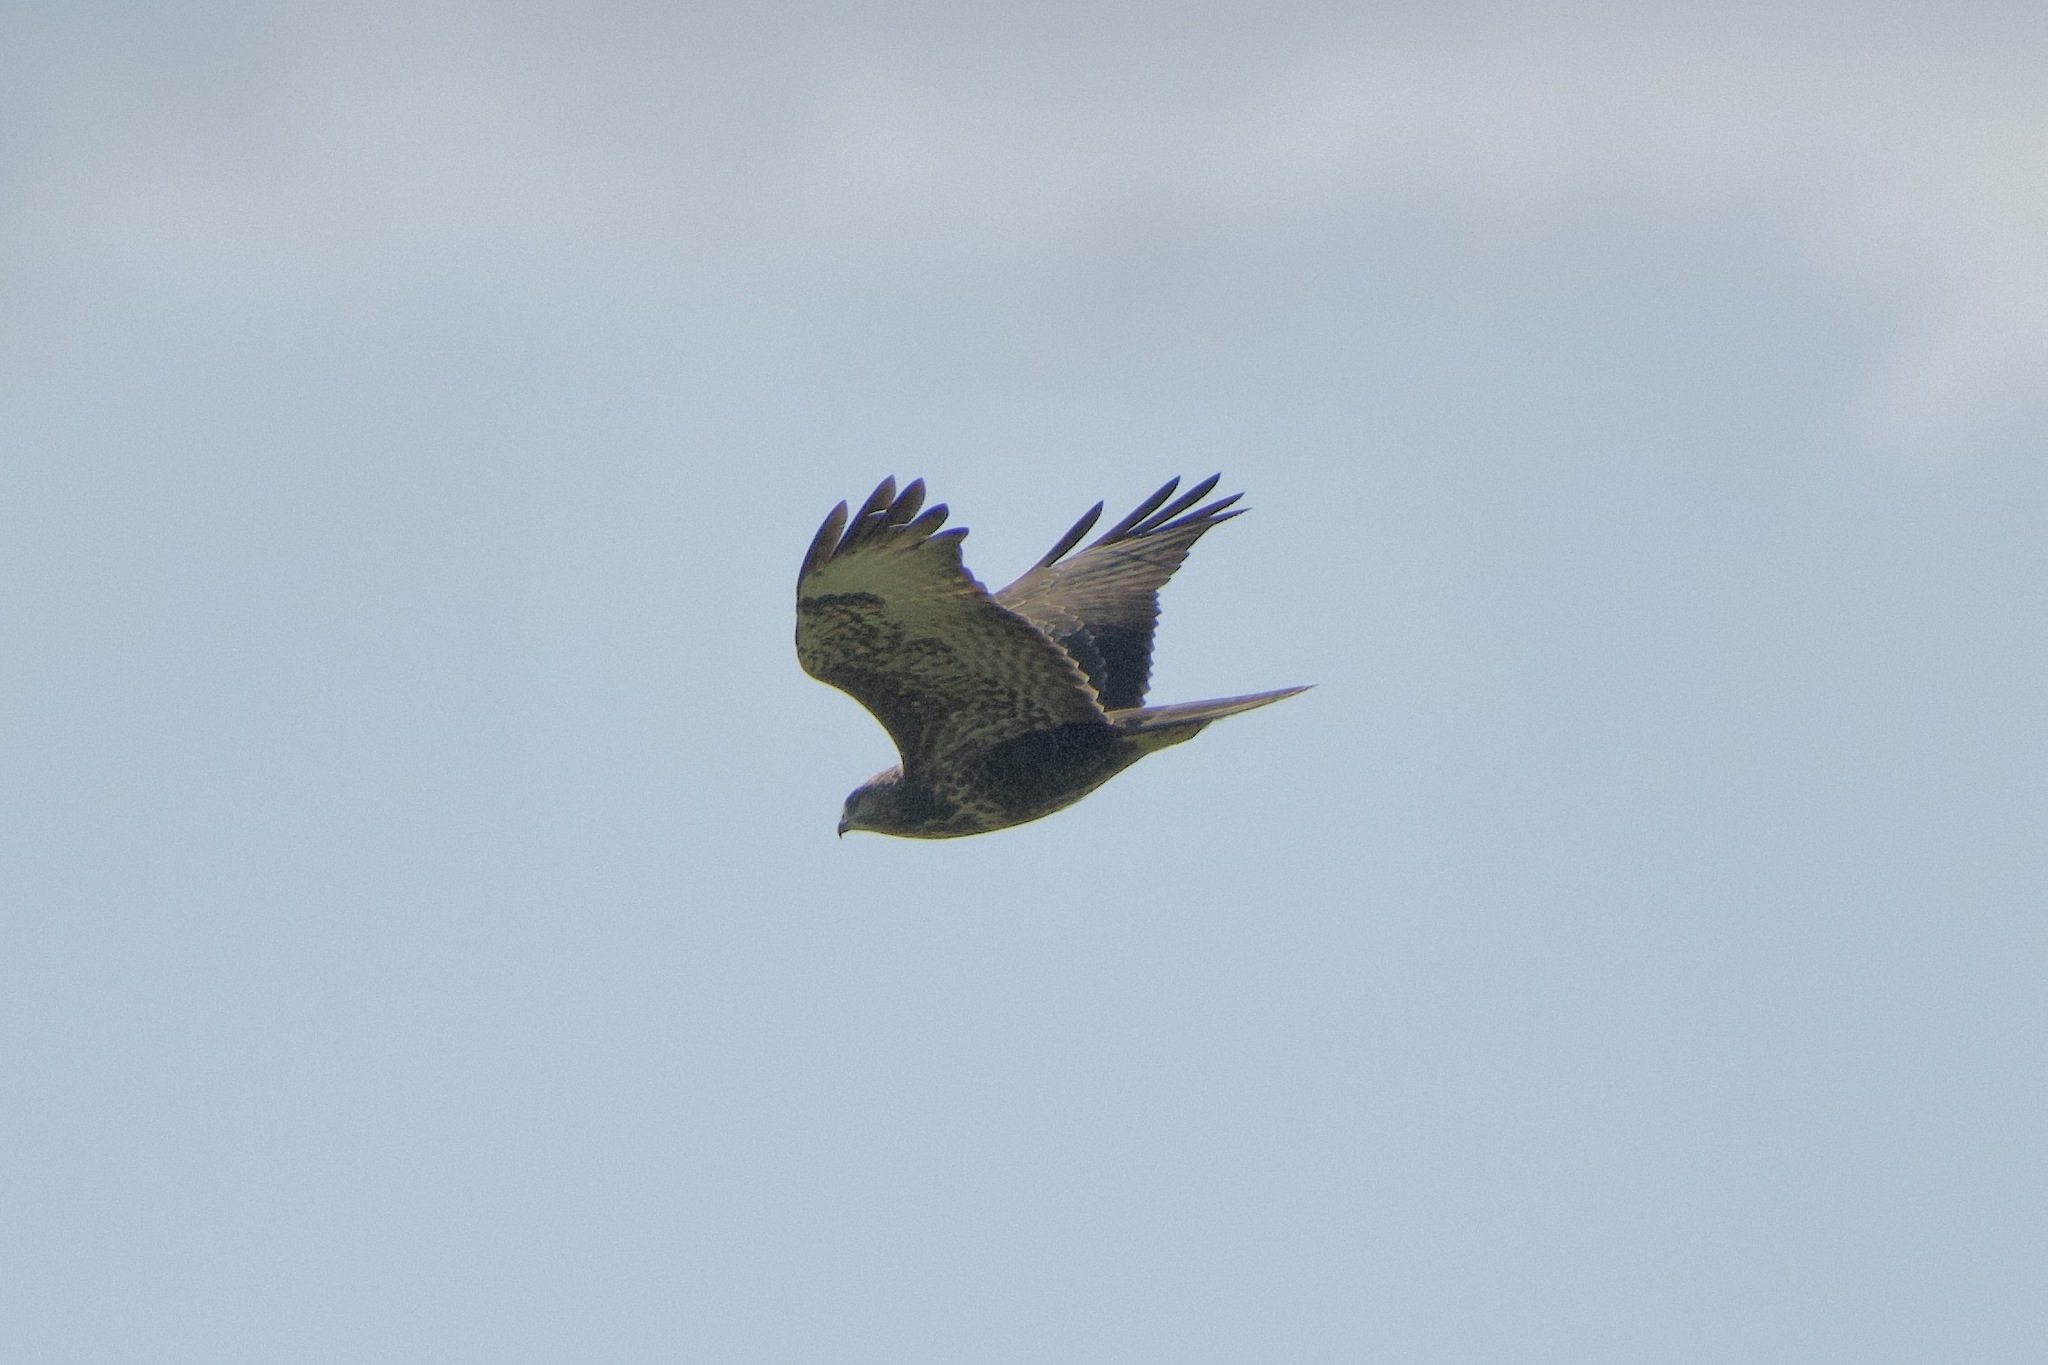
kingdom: Animalia
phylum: Chordata
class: Aves
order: Accipitriformes
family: Accipitridae
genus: Buteo
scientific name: Buteo buteo
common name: Common buzzard
